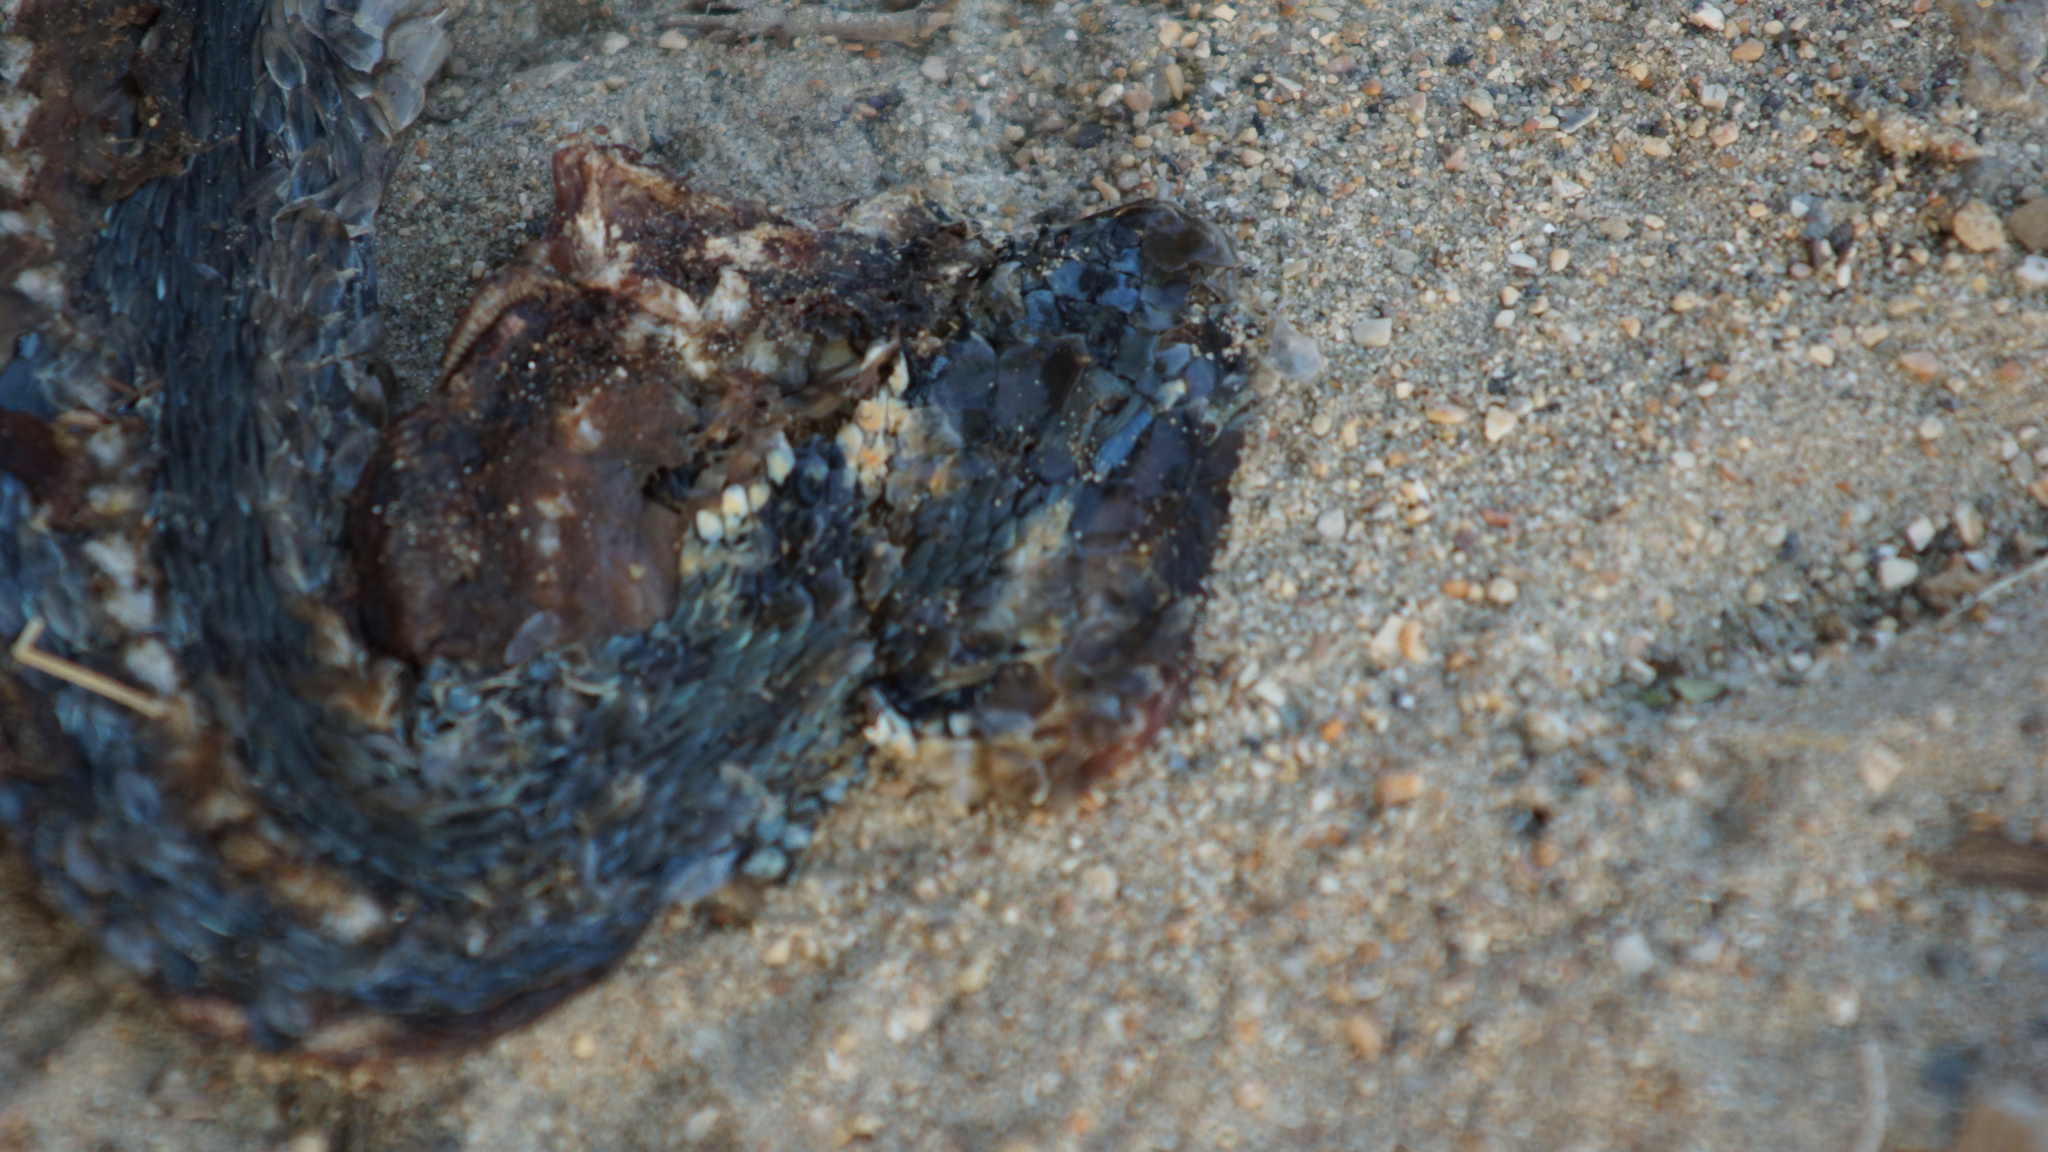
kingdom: Animalia
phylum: Chordata
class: Squamata
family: Colubridae
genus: Natrix
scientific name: Natrix natrix
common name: Grass snake
